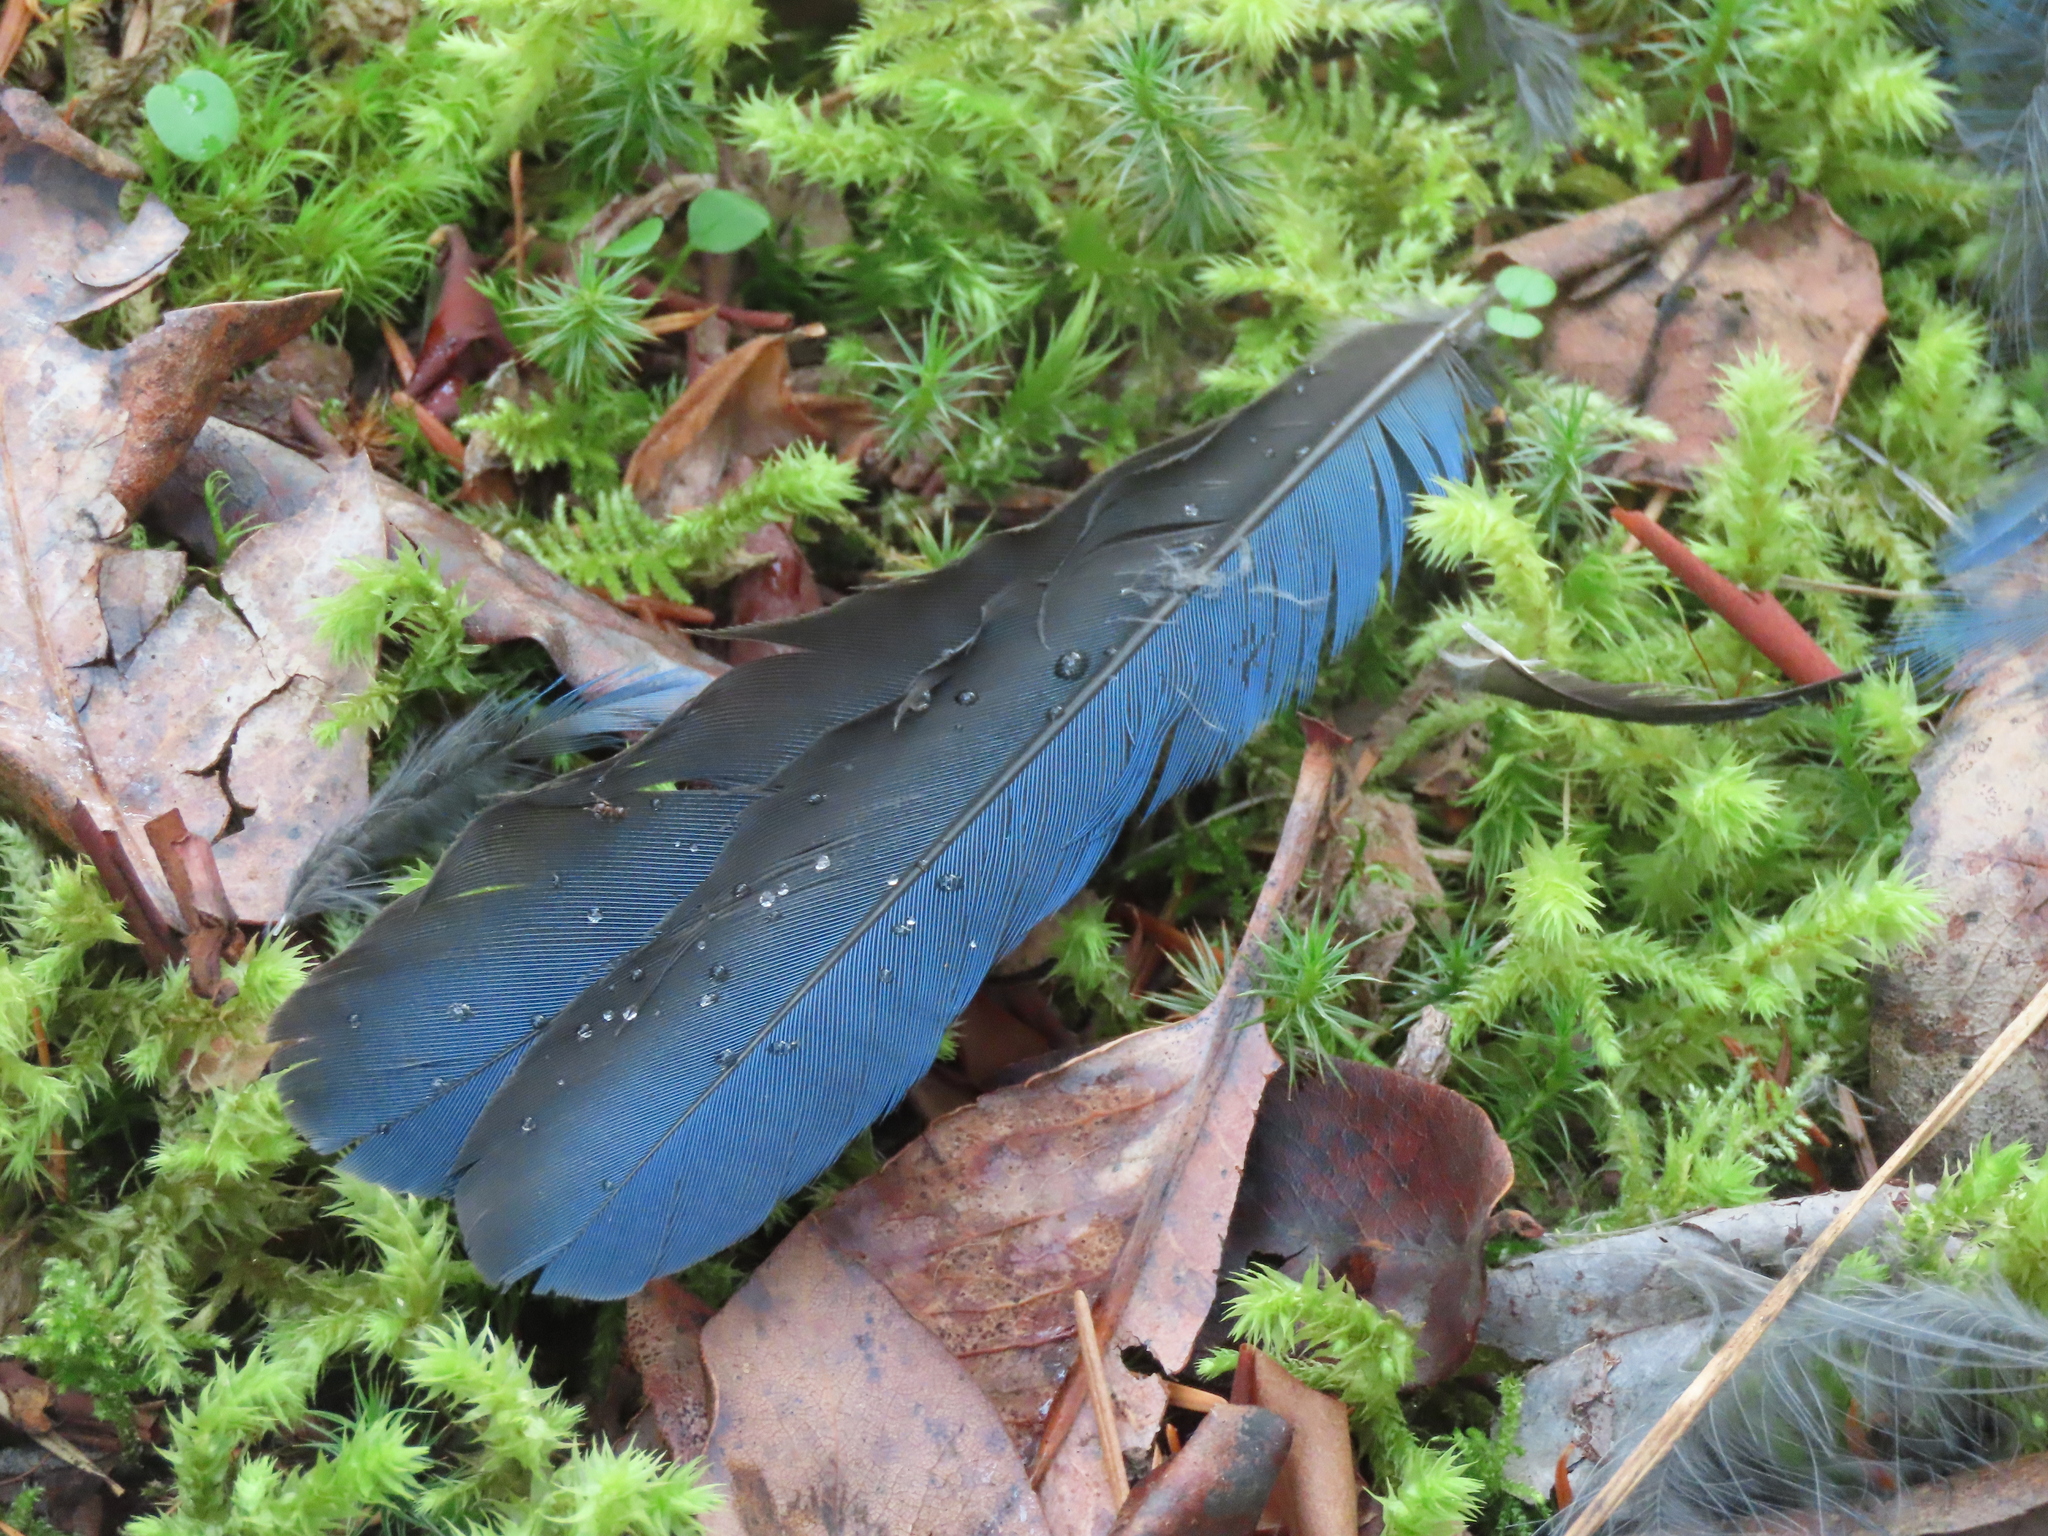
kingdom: Animalia
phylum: Chordata
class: Aves
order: Passeriformes
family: Corvidae
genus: Cyanocitta
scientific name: Cyanocitta stelleri
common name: Steller's jay
